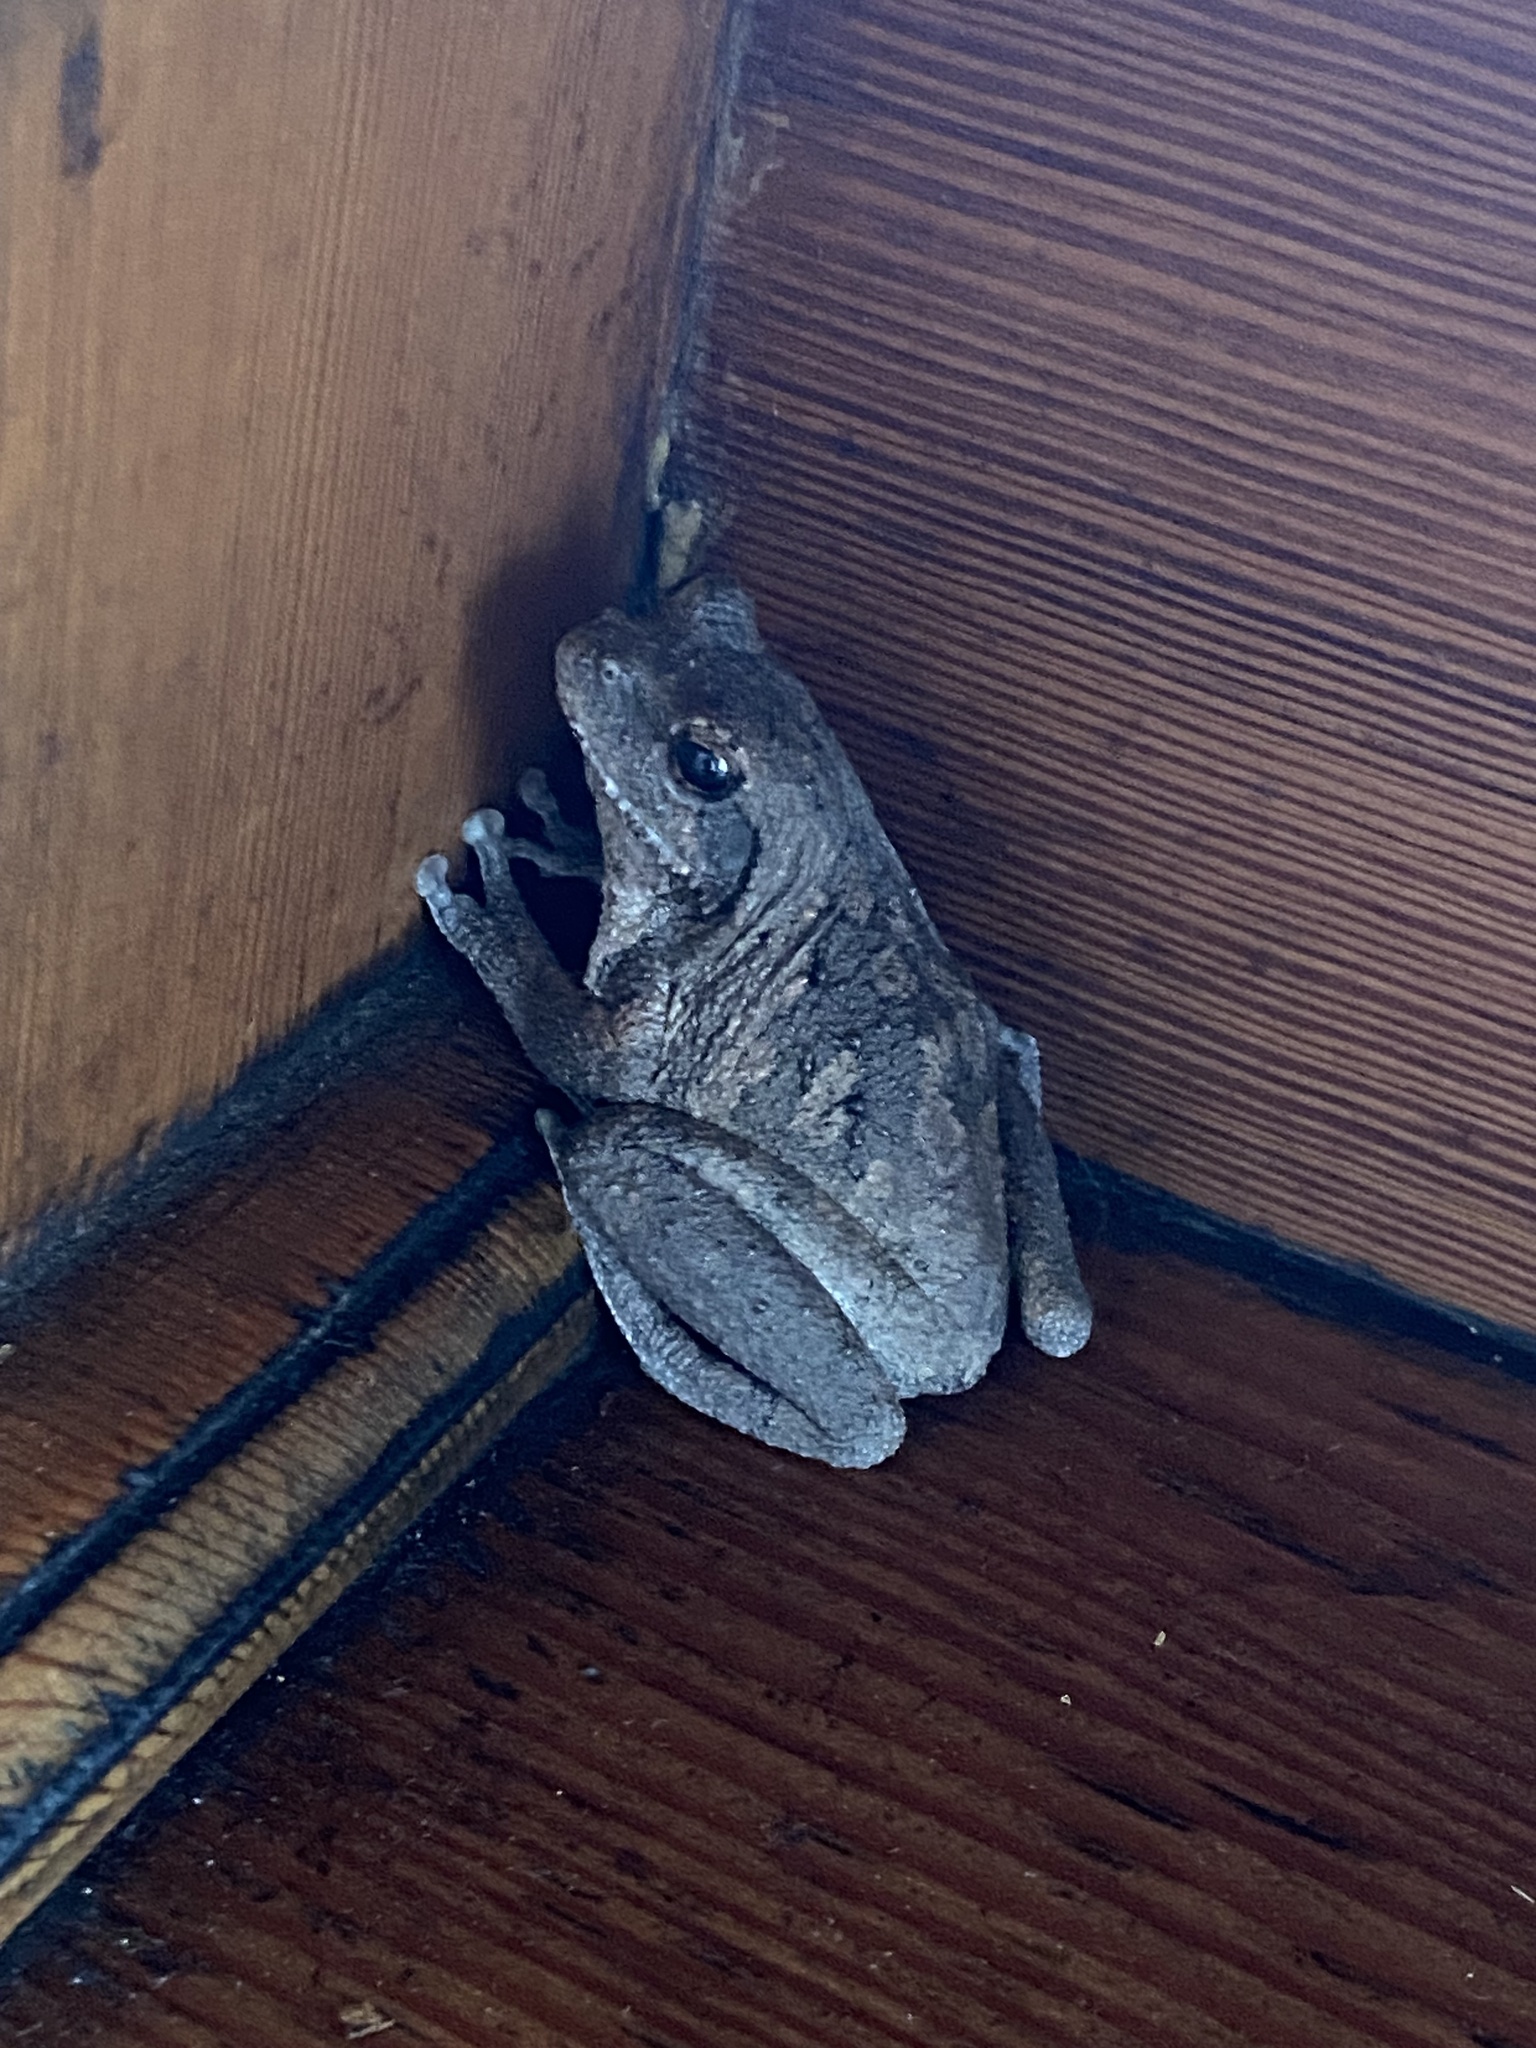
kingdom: Animalia
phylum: Chordata
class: Amphibia
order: Anura
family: Rhacophoridae
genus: Chiromantis
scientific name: Chiromantis xerampelina
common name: African gray treefrog
